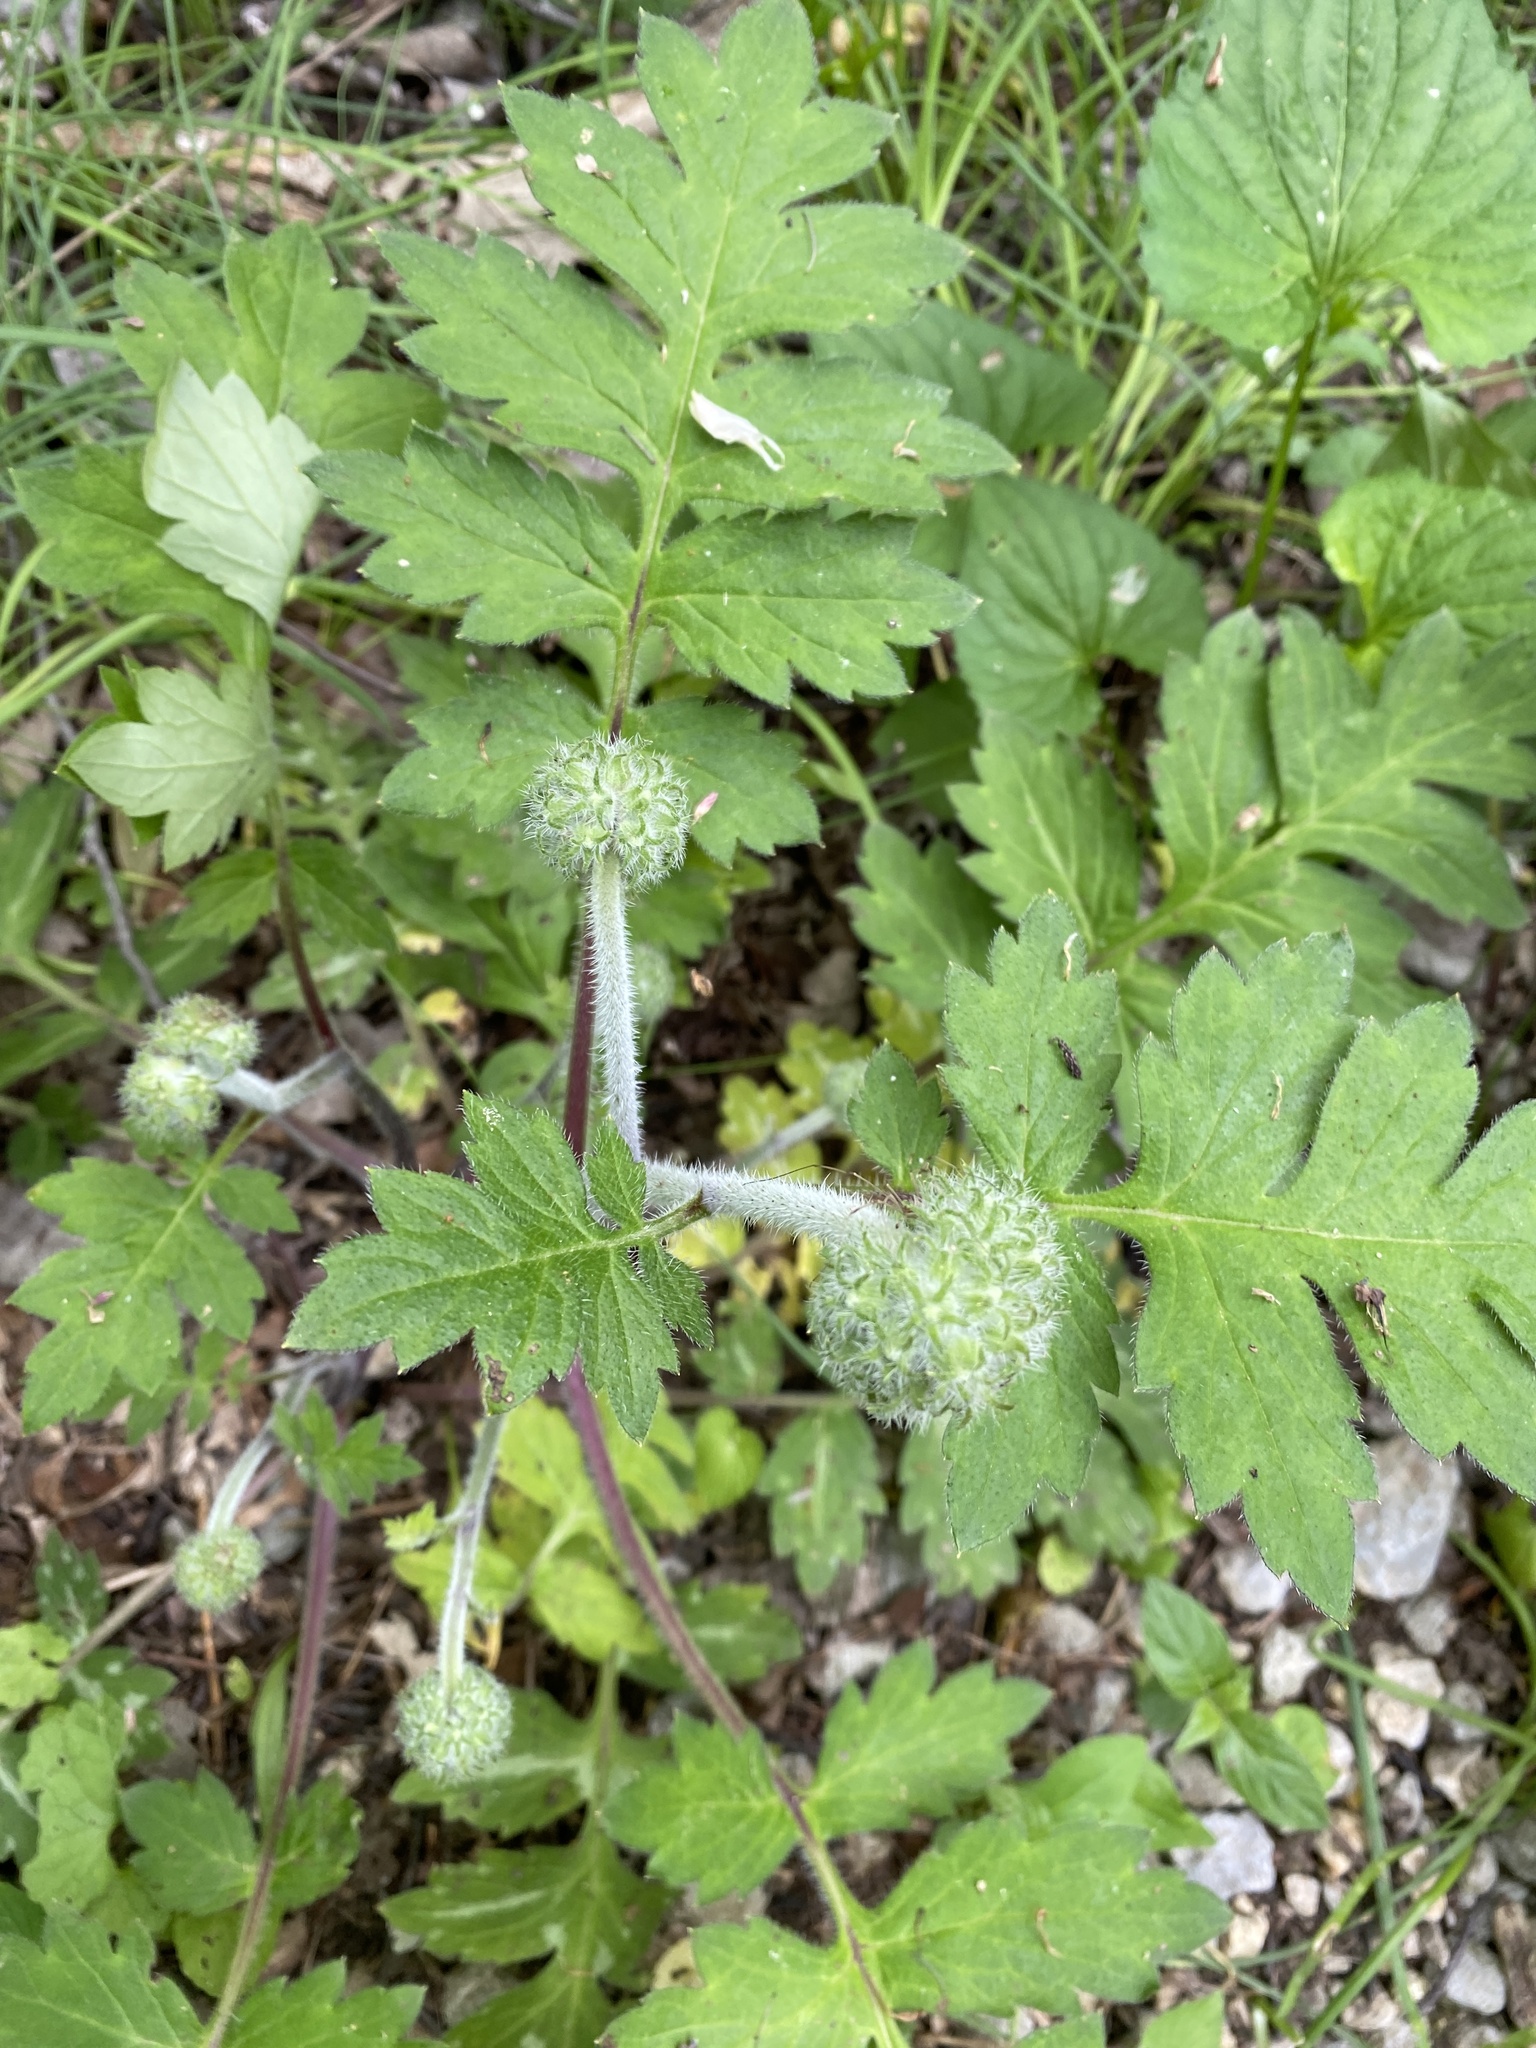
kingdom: Plantae
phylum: Tracheophyta
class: Magnoliopsida
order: Boraginales
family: Hydrophyllaceae
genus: Hydrophyllum
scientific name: Hydrophyllum macrophyllum
